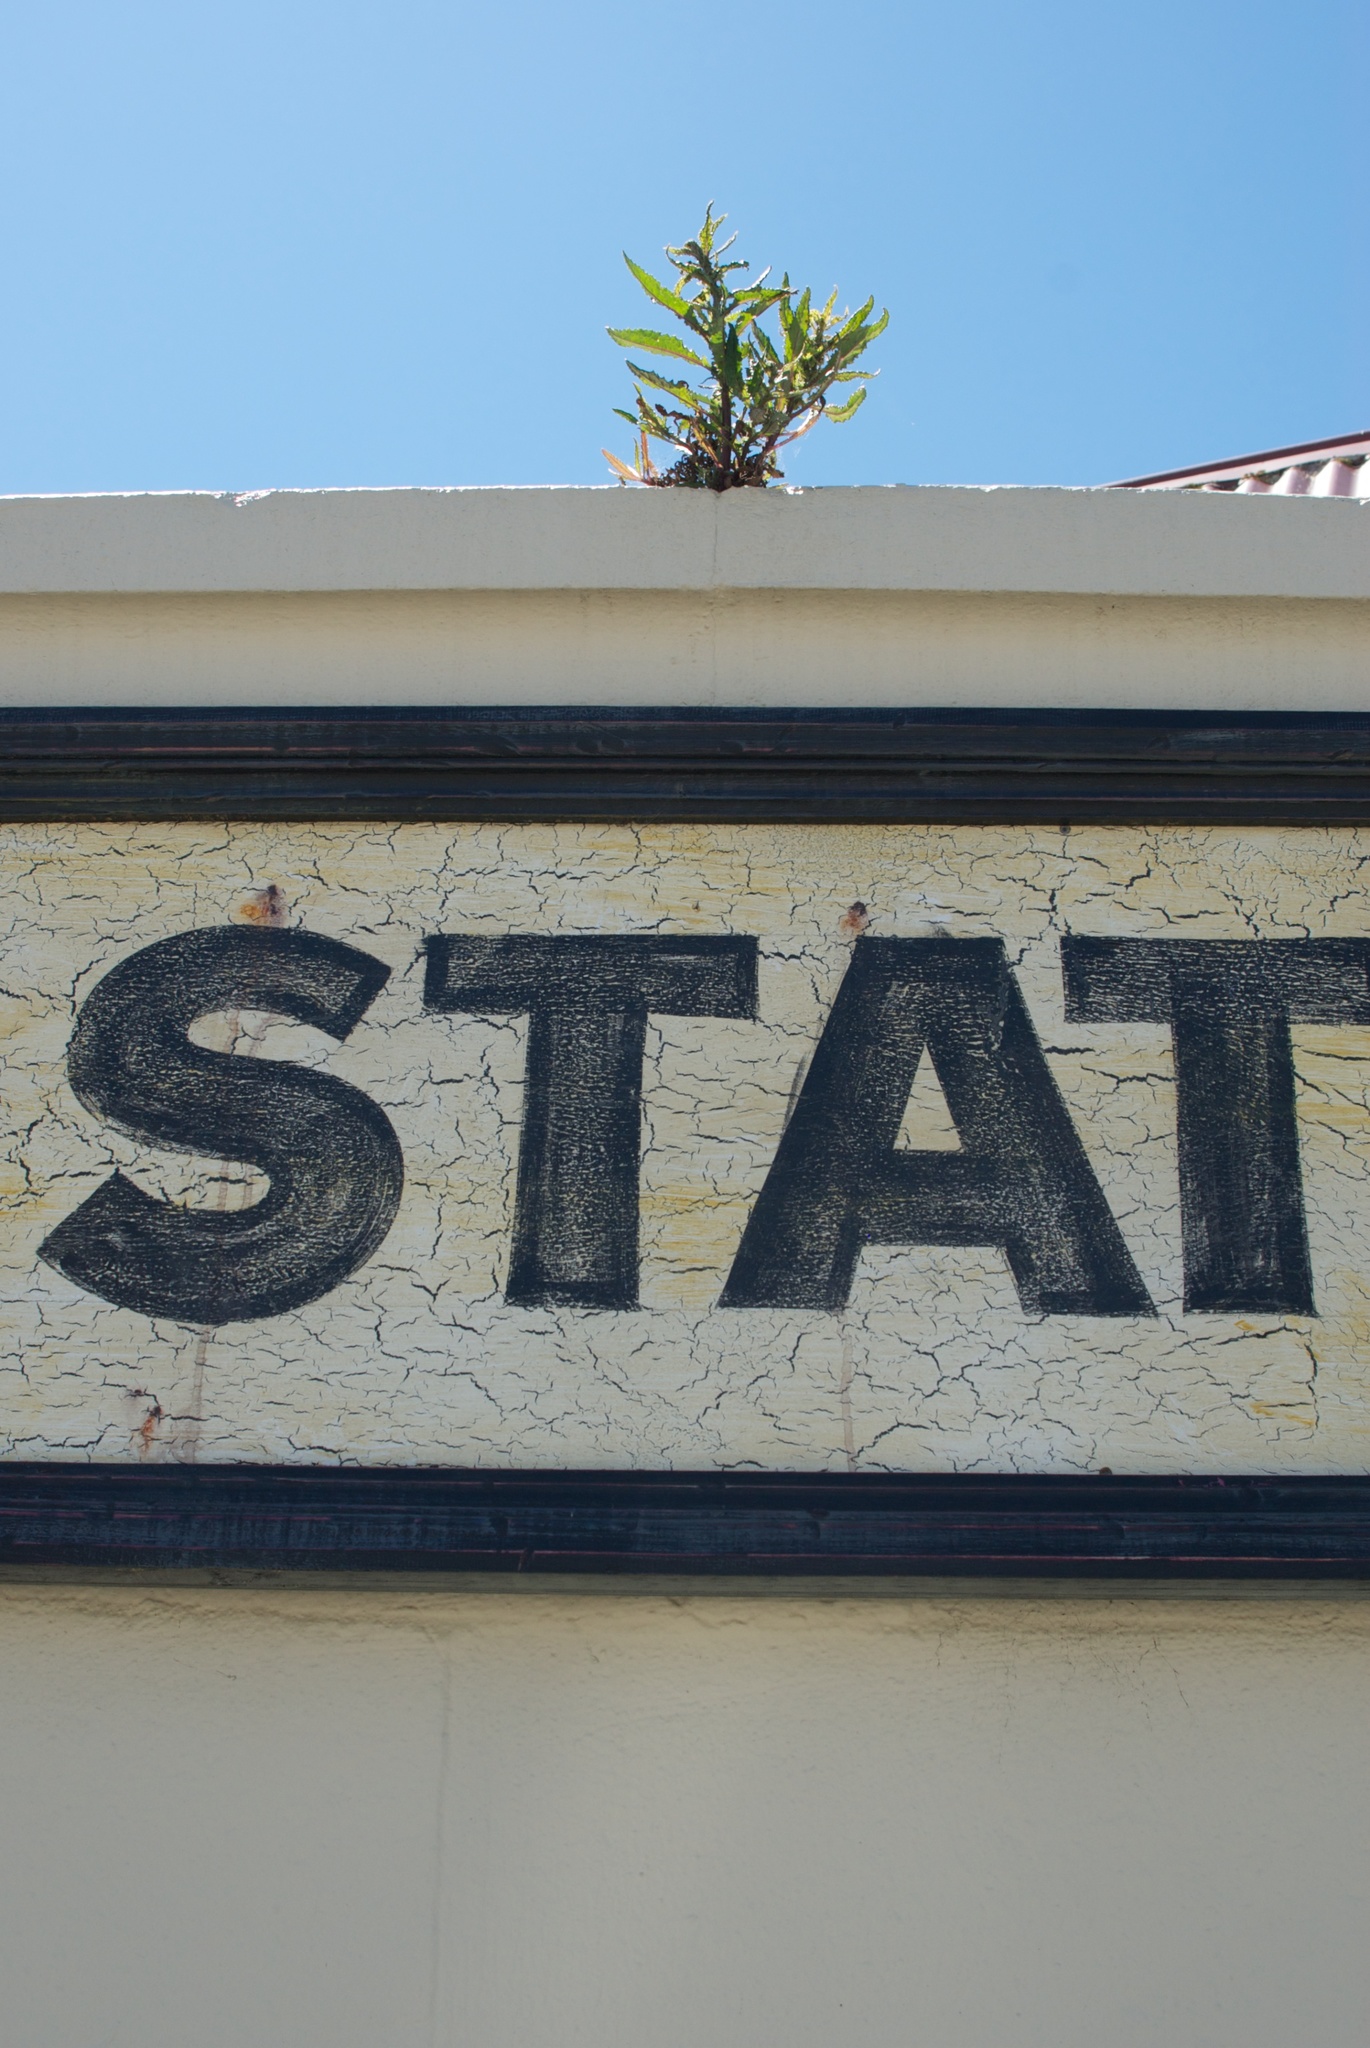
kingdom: Plantae
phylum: Tracheophyta
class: Magnoliopsida
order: Asterales
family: Asteraceae
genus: Senecio
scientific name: Senecio minimus
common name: Toothed fireweed
